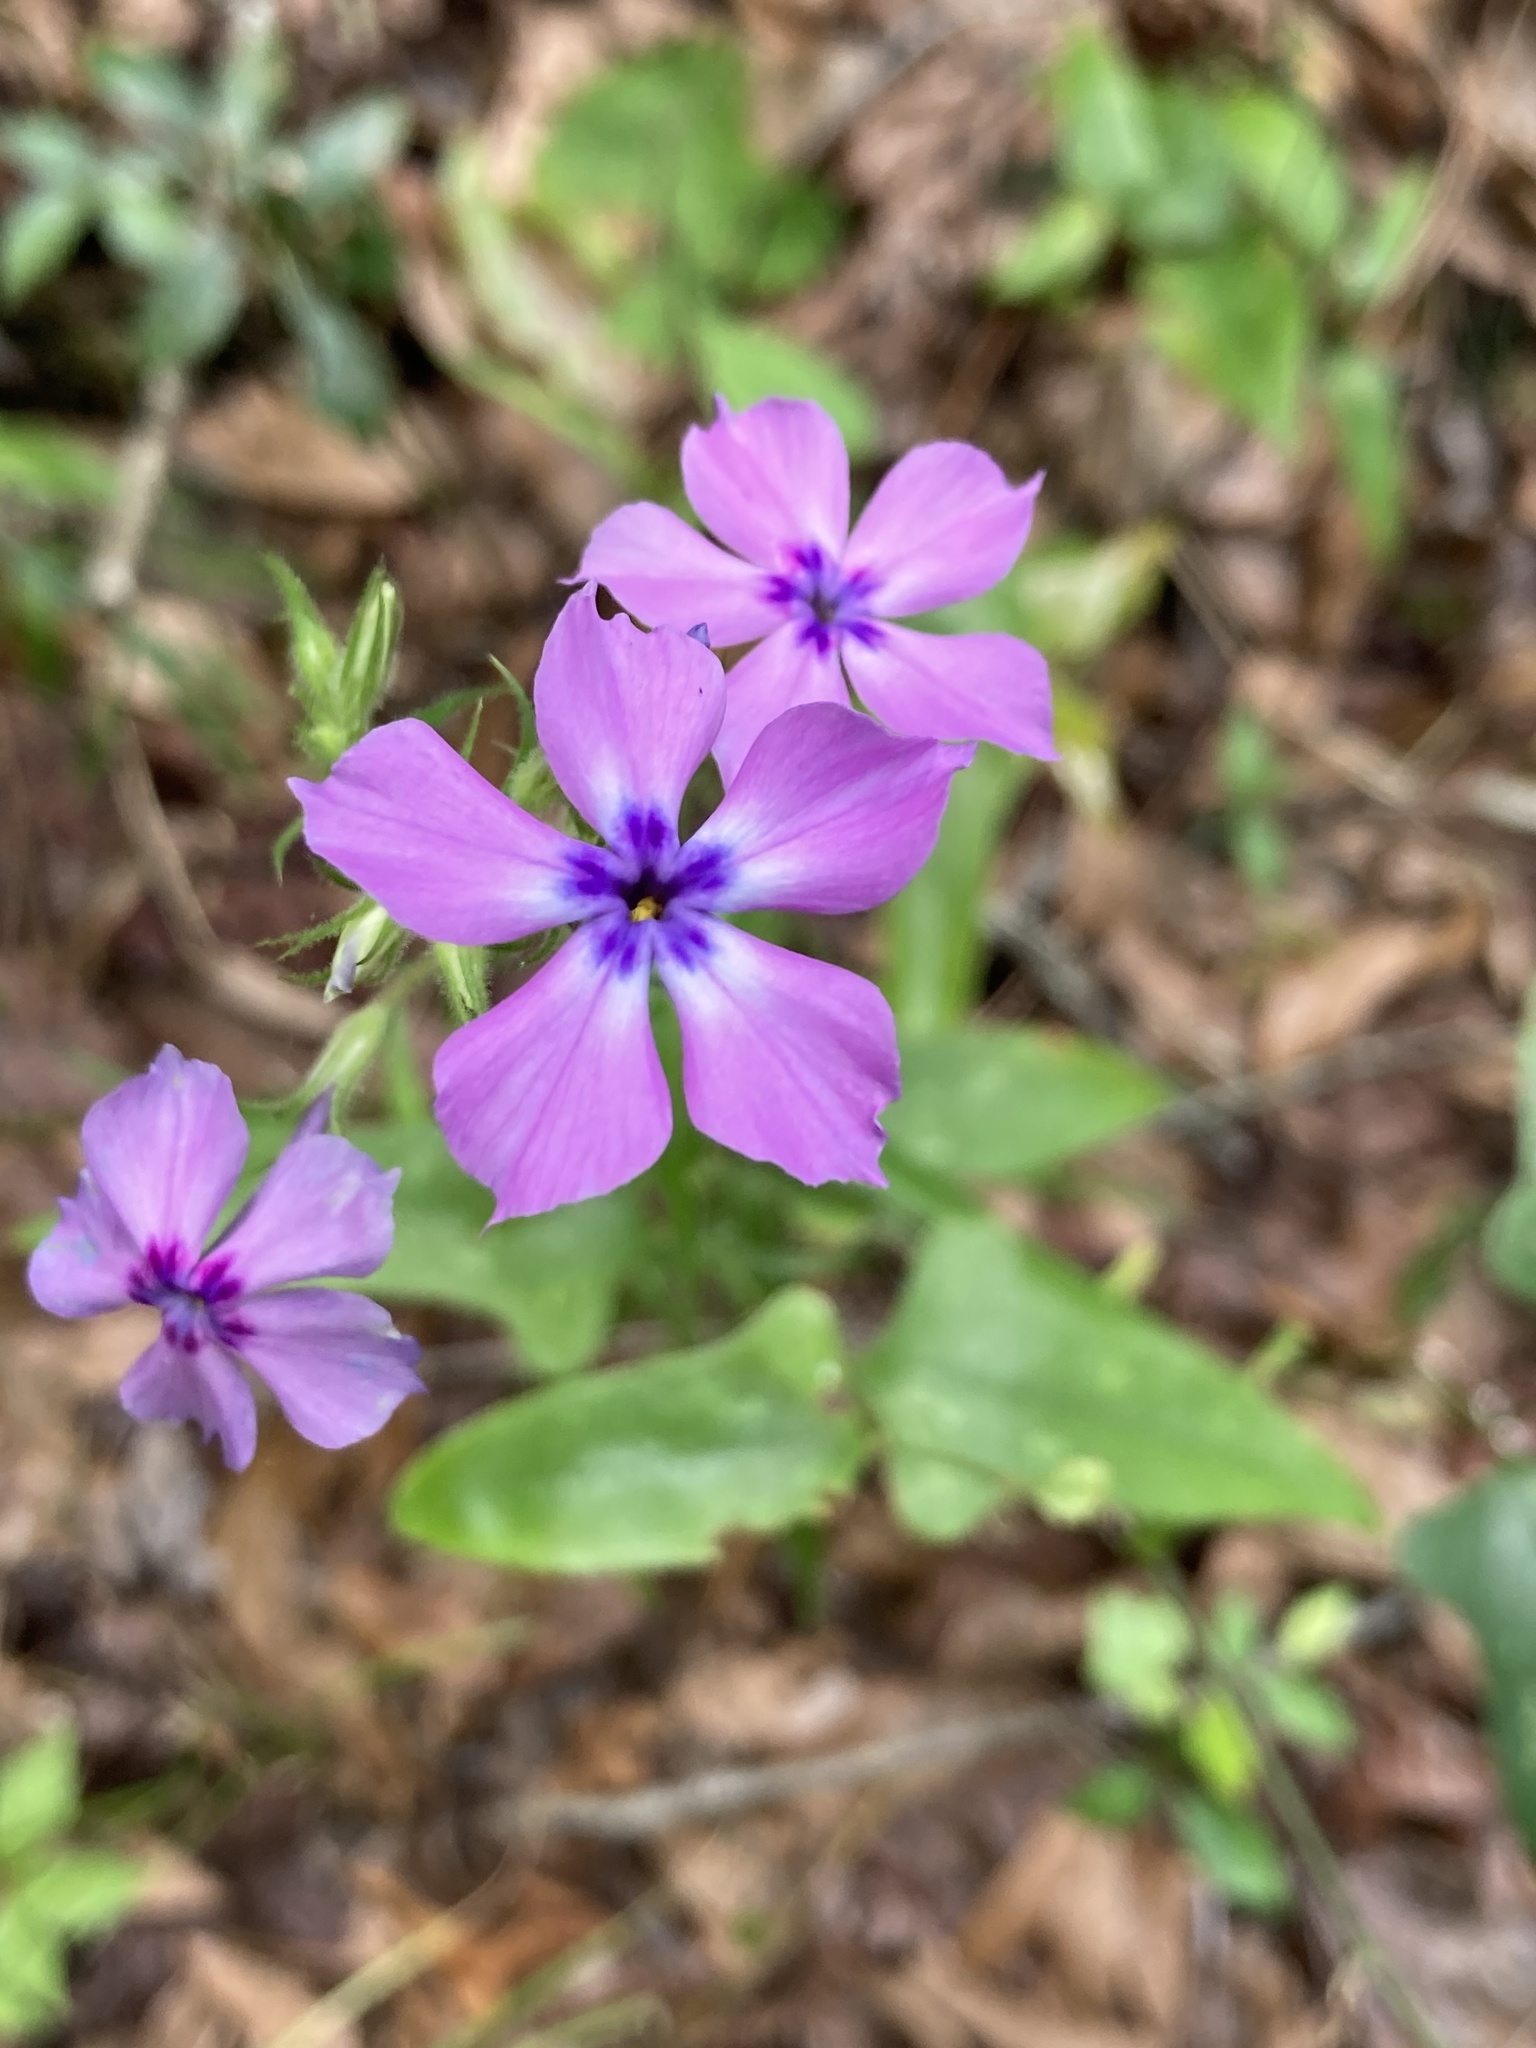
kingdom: Plantae
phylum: Tracheophyta
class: Magnoliopsida
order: Ericales
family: Polemoniaceae
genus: Phlox
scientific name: Phlox pilosa
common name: Prairie phlox
